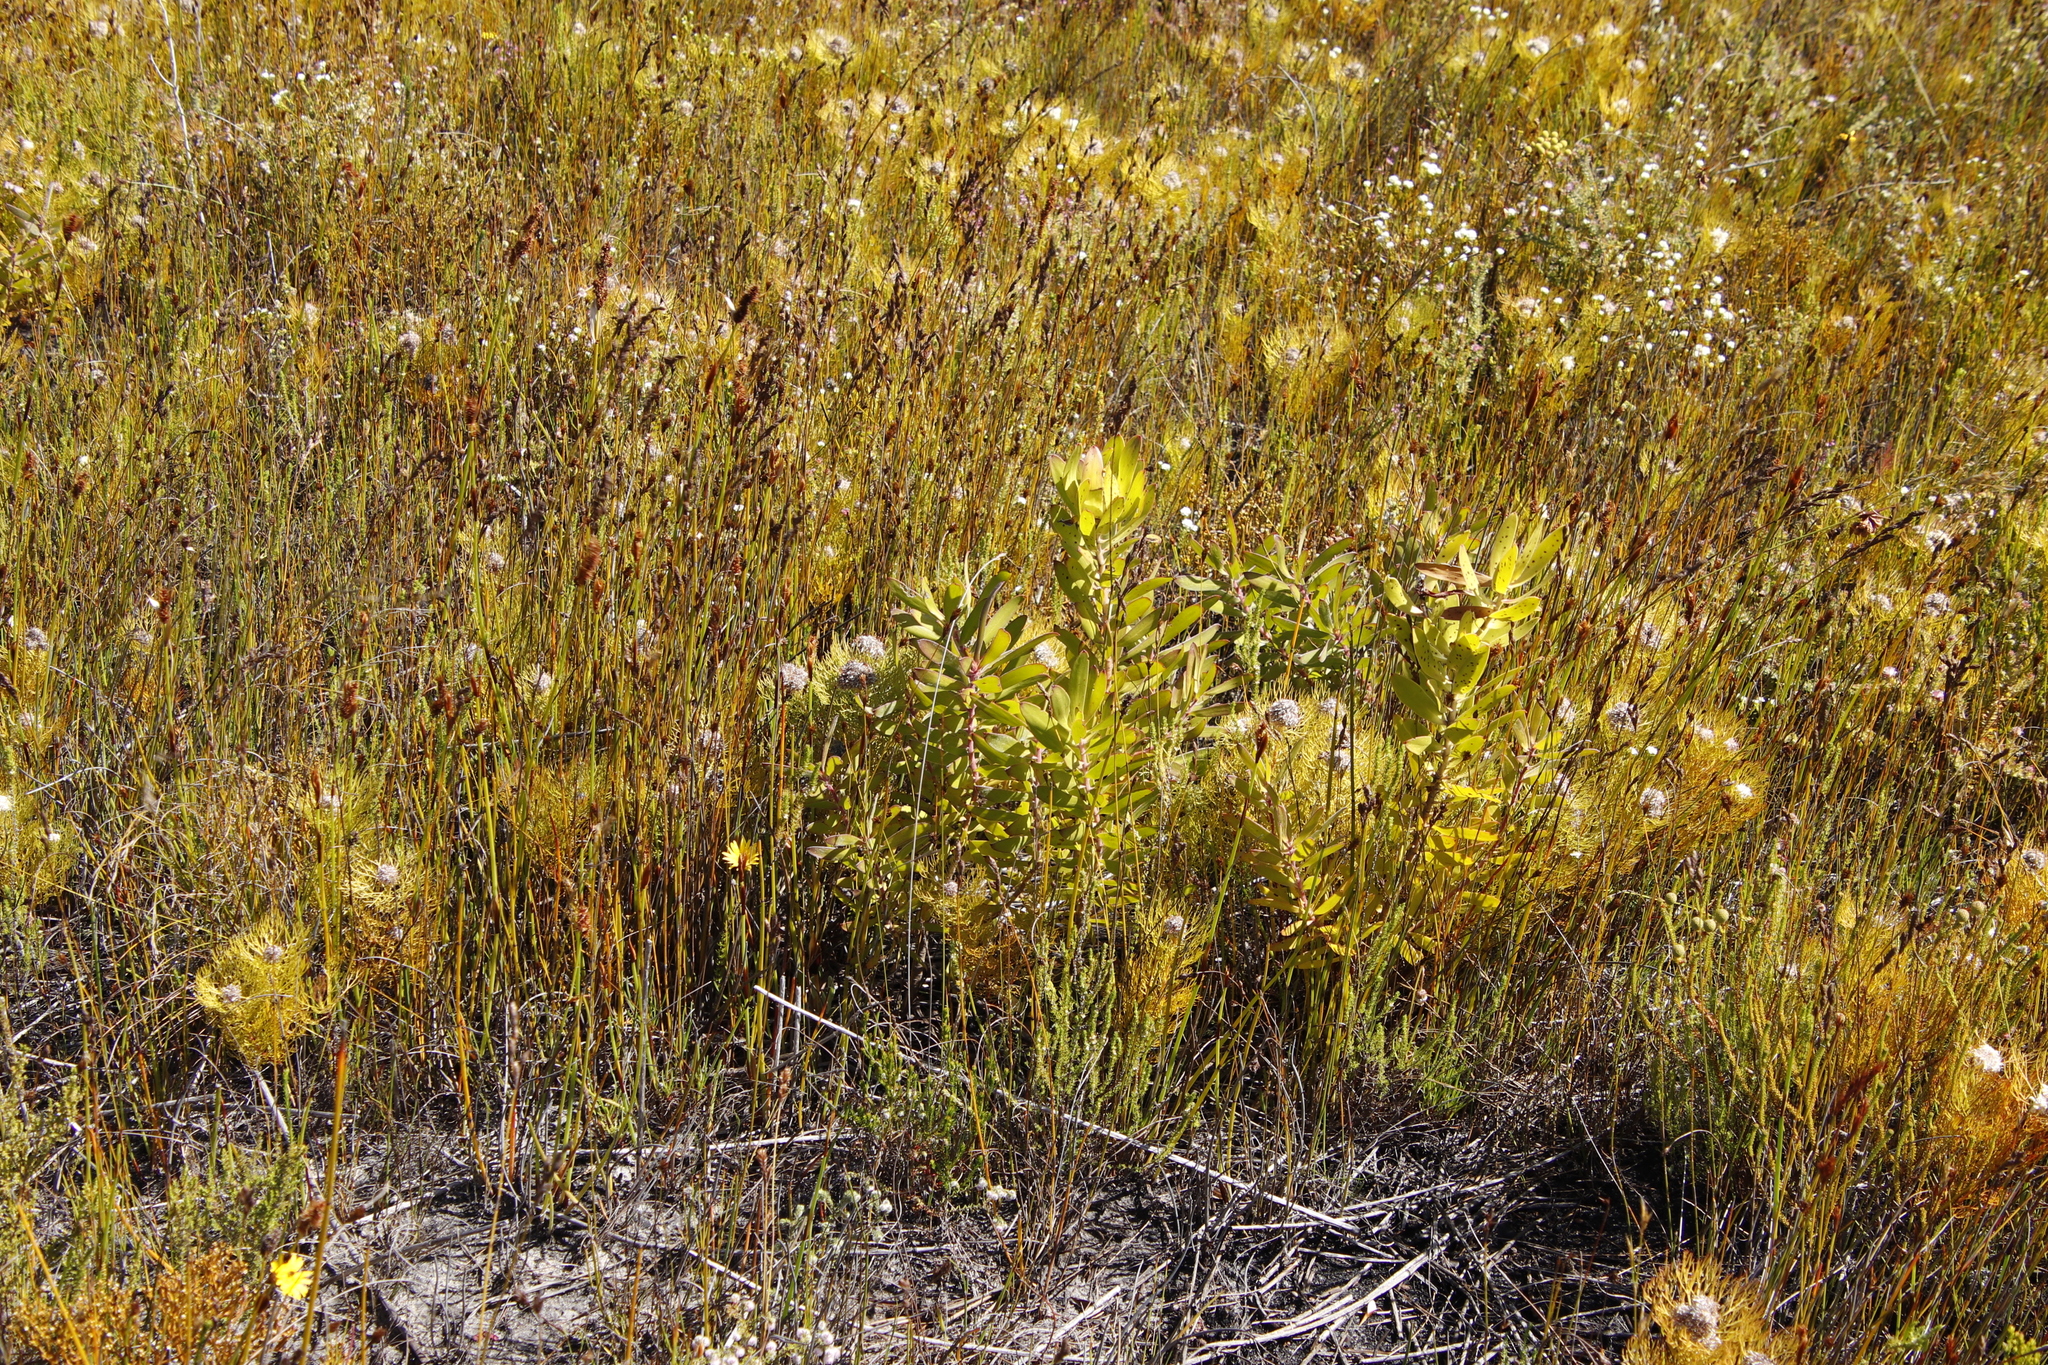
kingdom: Plantae
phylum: Tracheophyta
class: Magnoliopsida
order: Proteales
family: Proteaceae
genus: Leucadendron
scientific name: Leucadendron laureolum
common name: Golden sunshinebush
